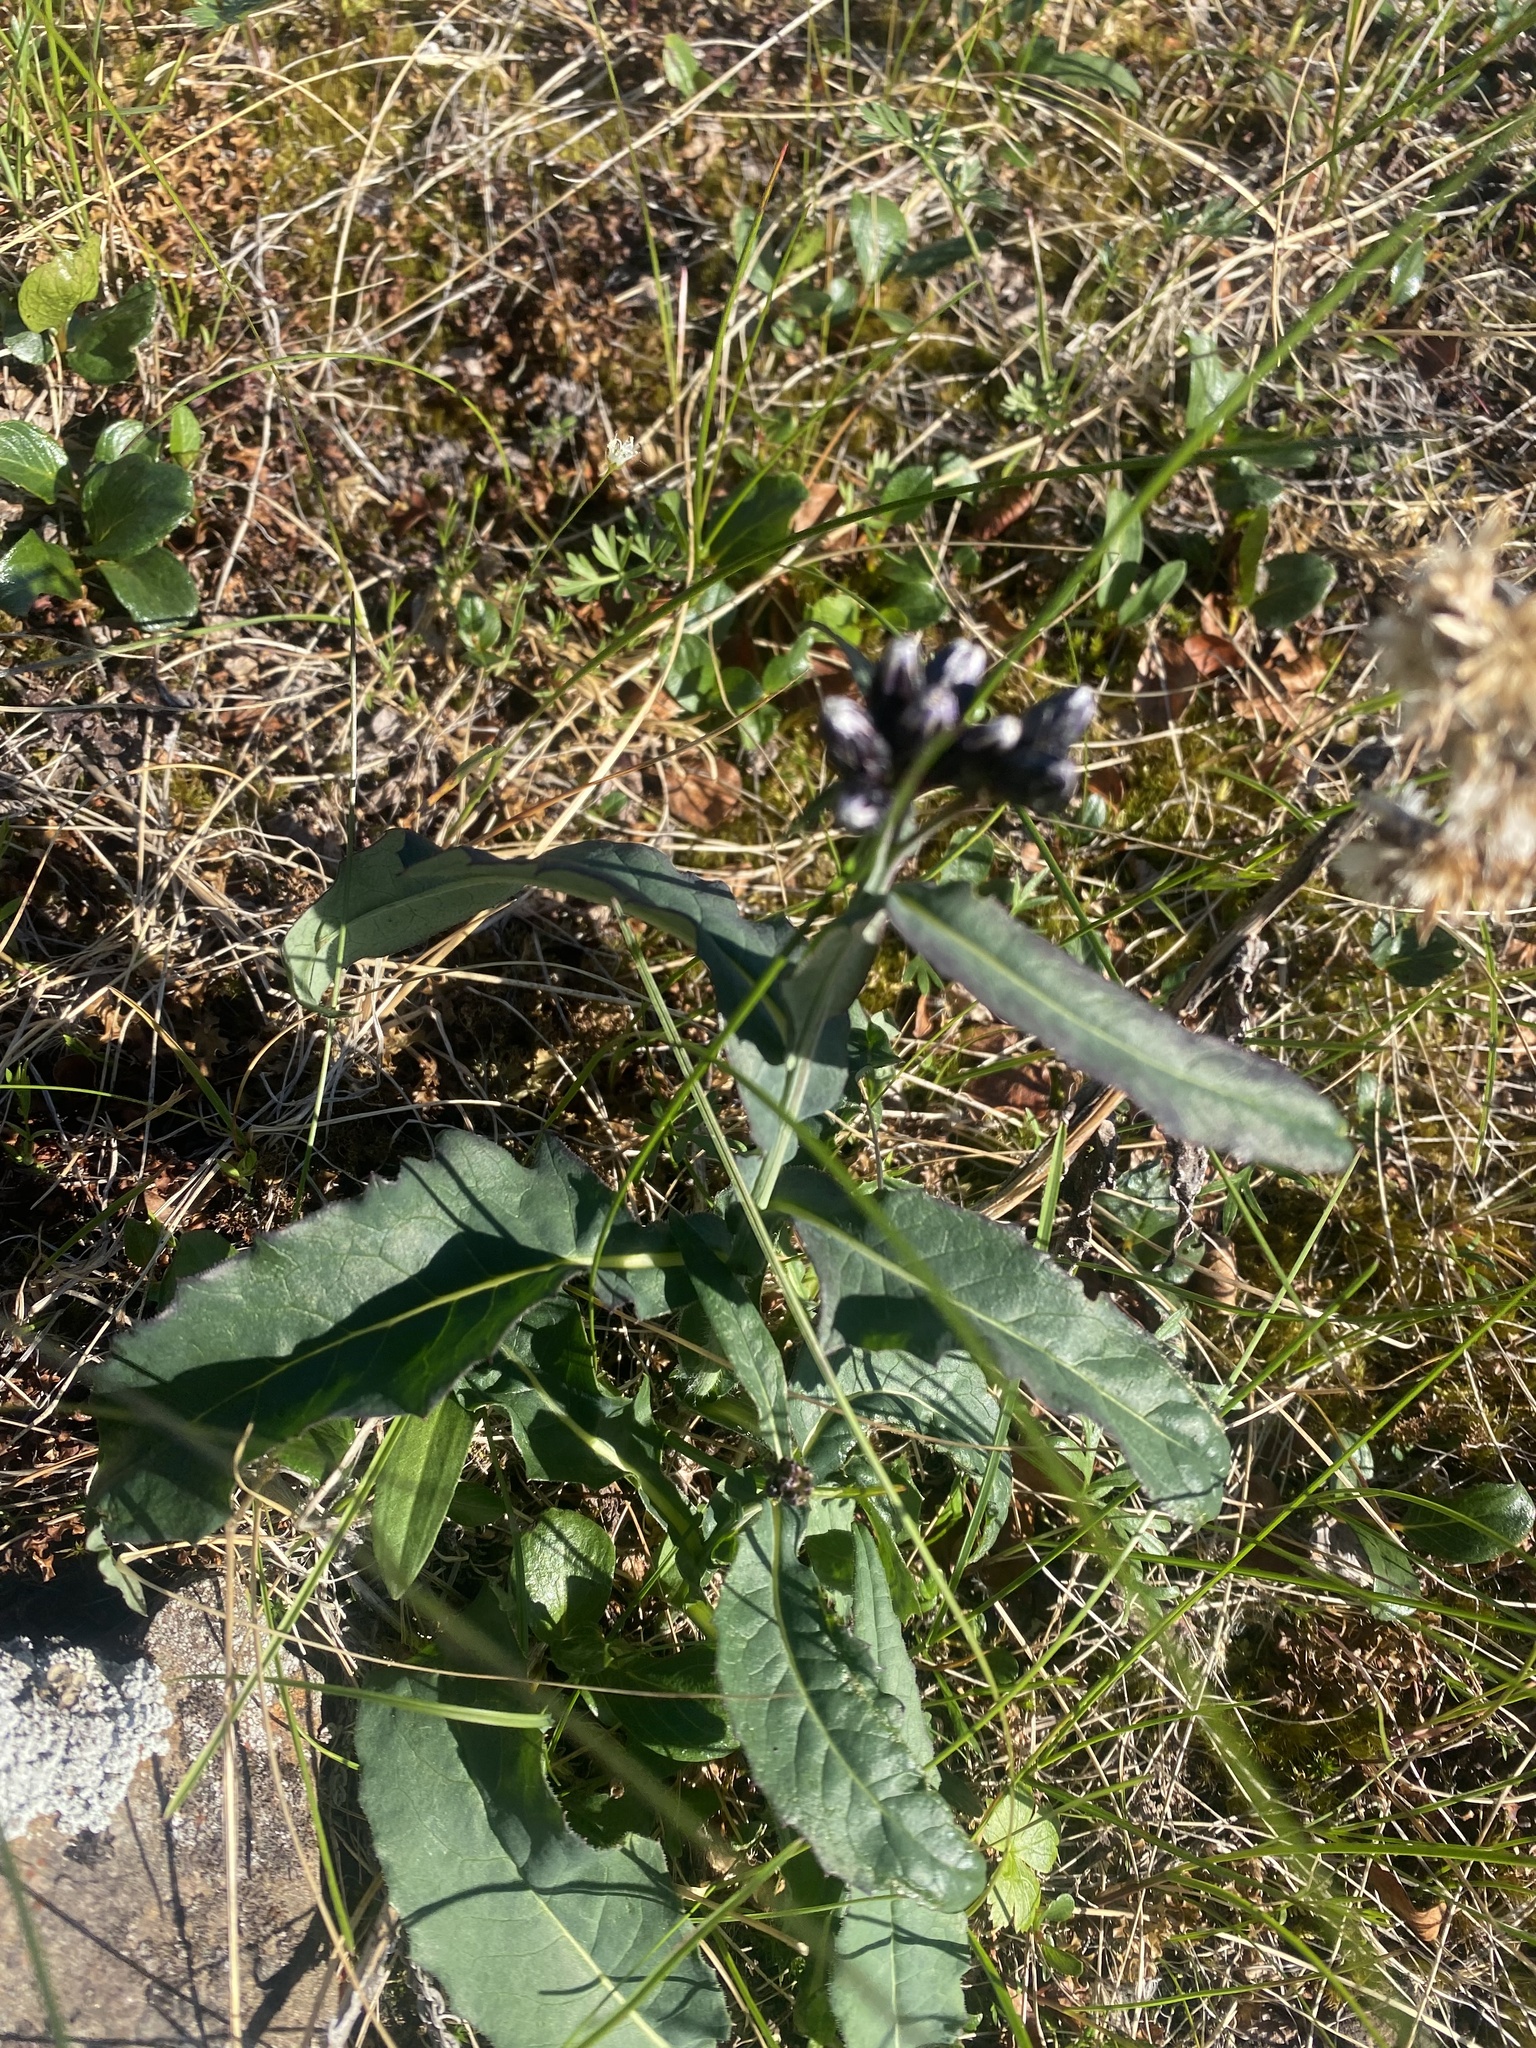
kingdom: Plantae
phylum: Tracheophyta
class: Magnoliopsida
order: Asterales
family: Asteraceae
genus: Saussurea
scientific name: Saussurea parviflora
